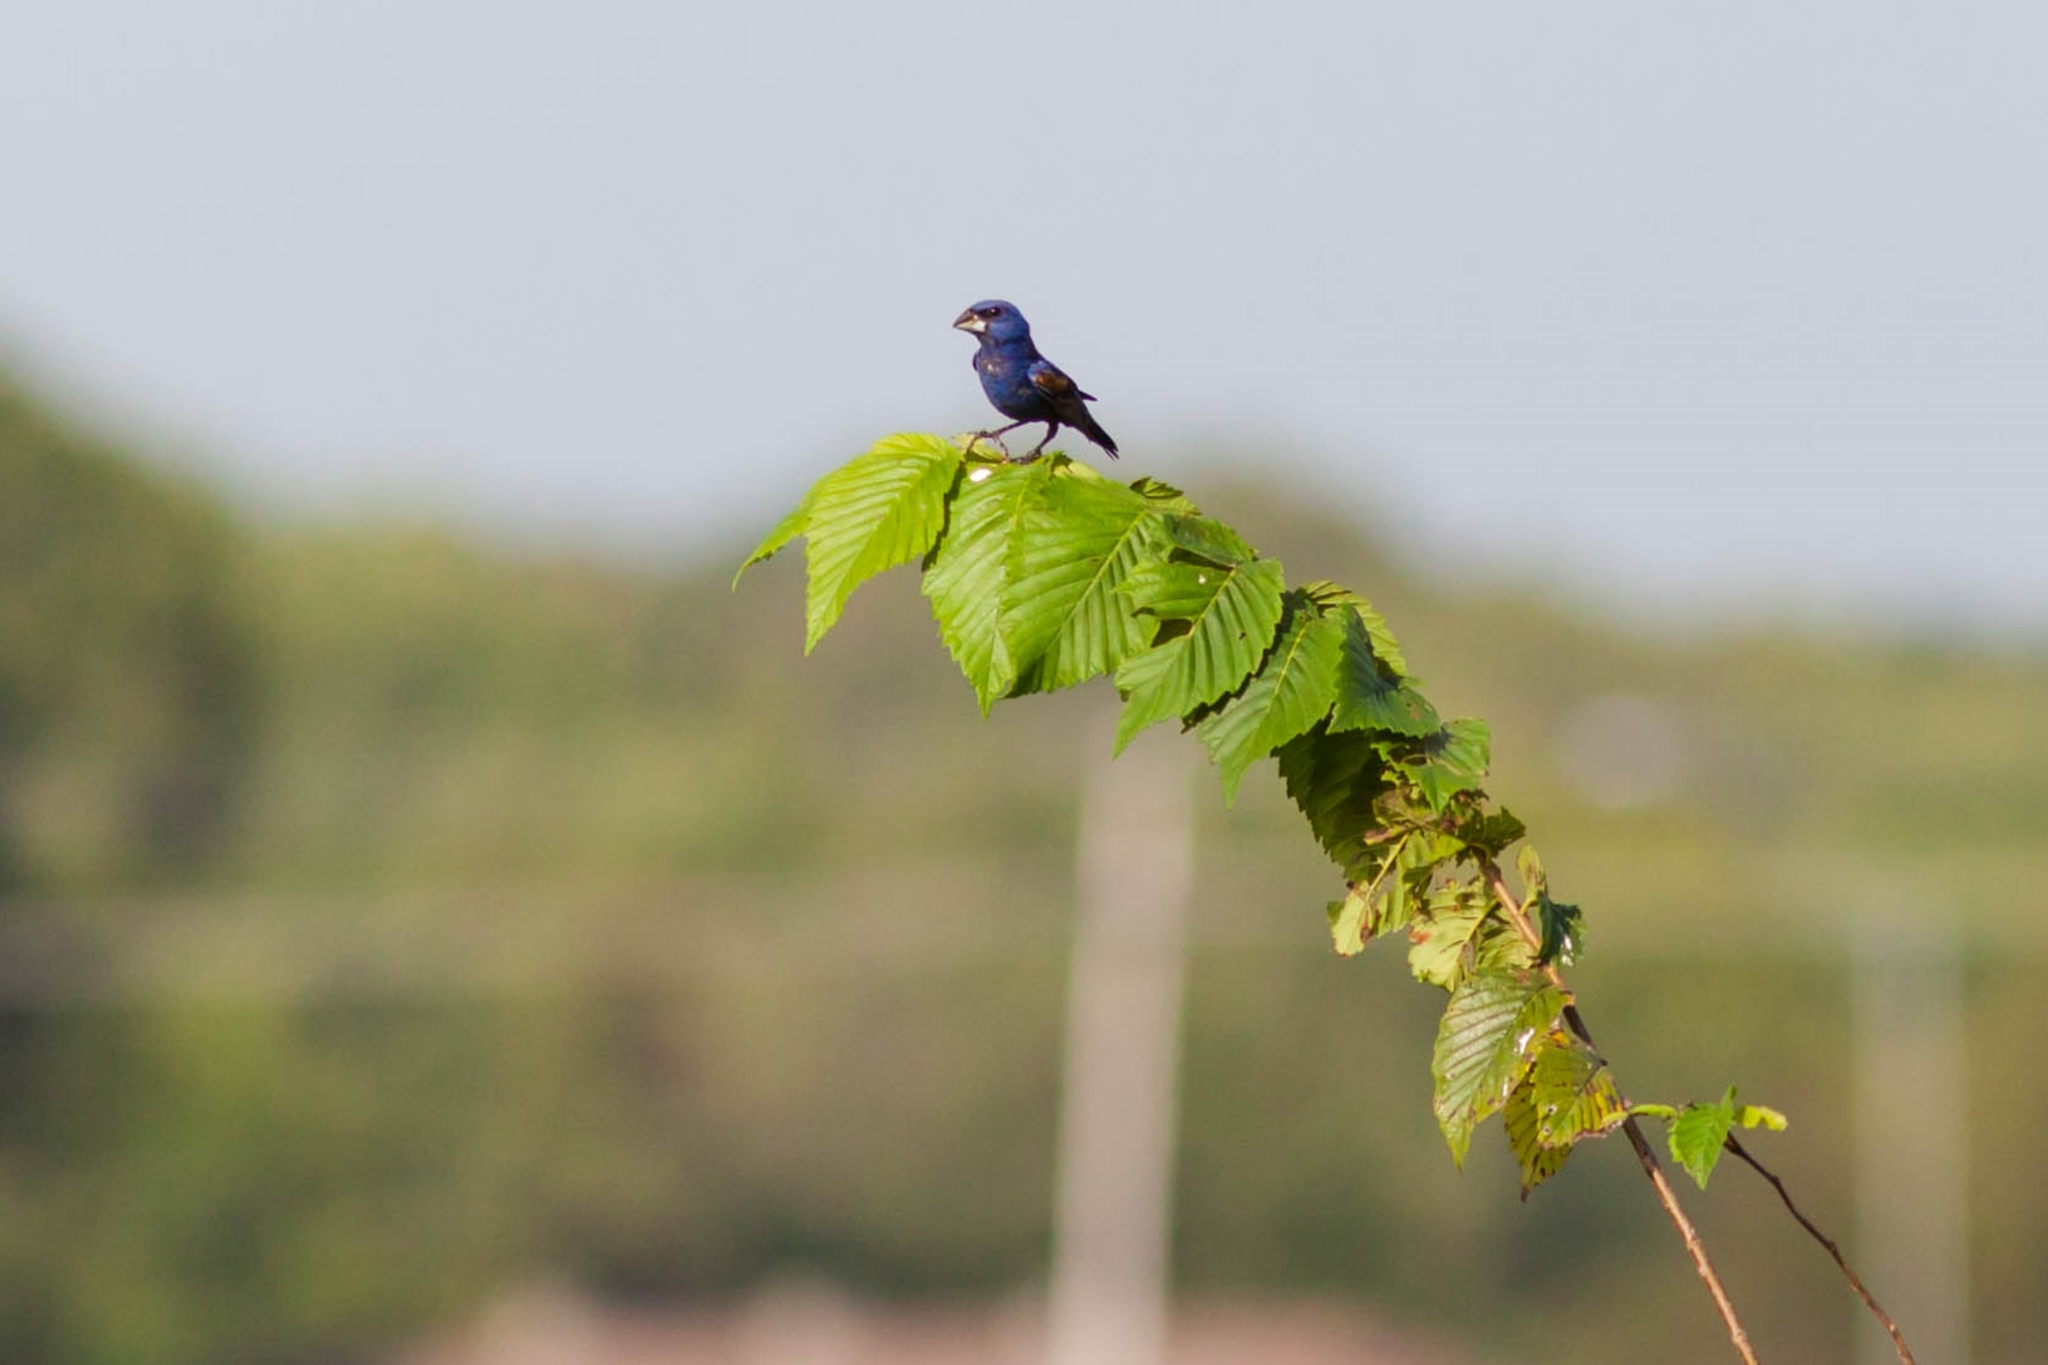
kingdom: Animalia
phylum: Chordata
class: Aves
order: Passeriformes
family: Cardinalidae
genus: Passerina
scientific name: Passerina caerulea
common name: Blue grosbeak
